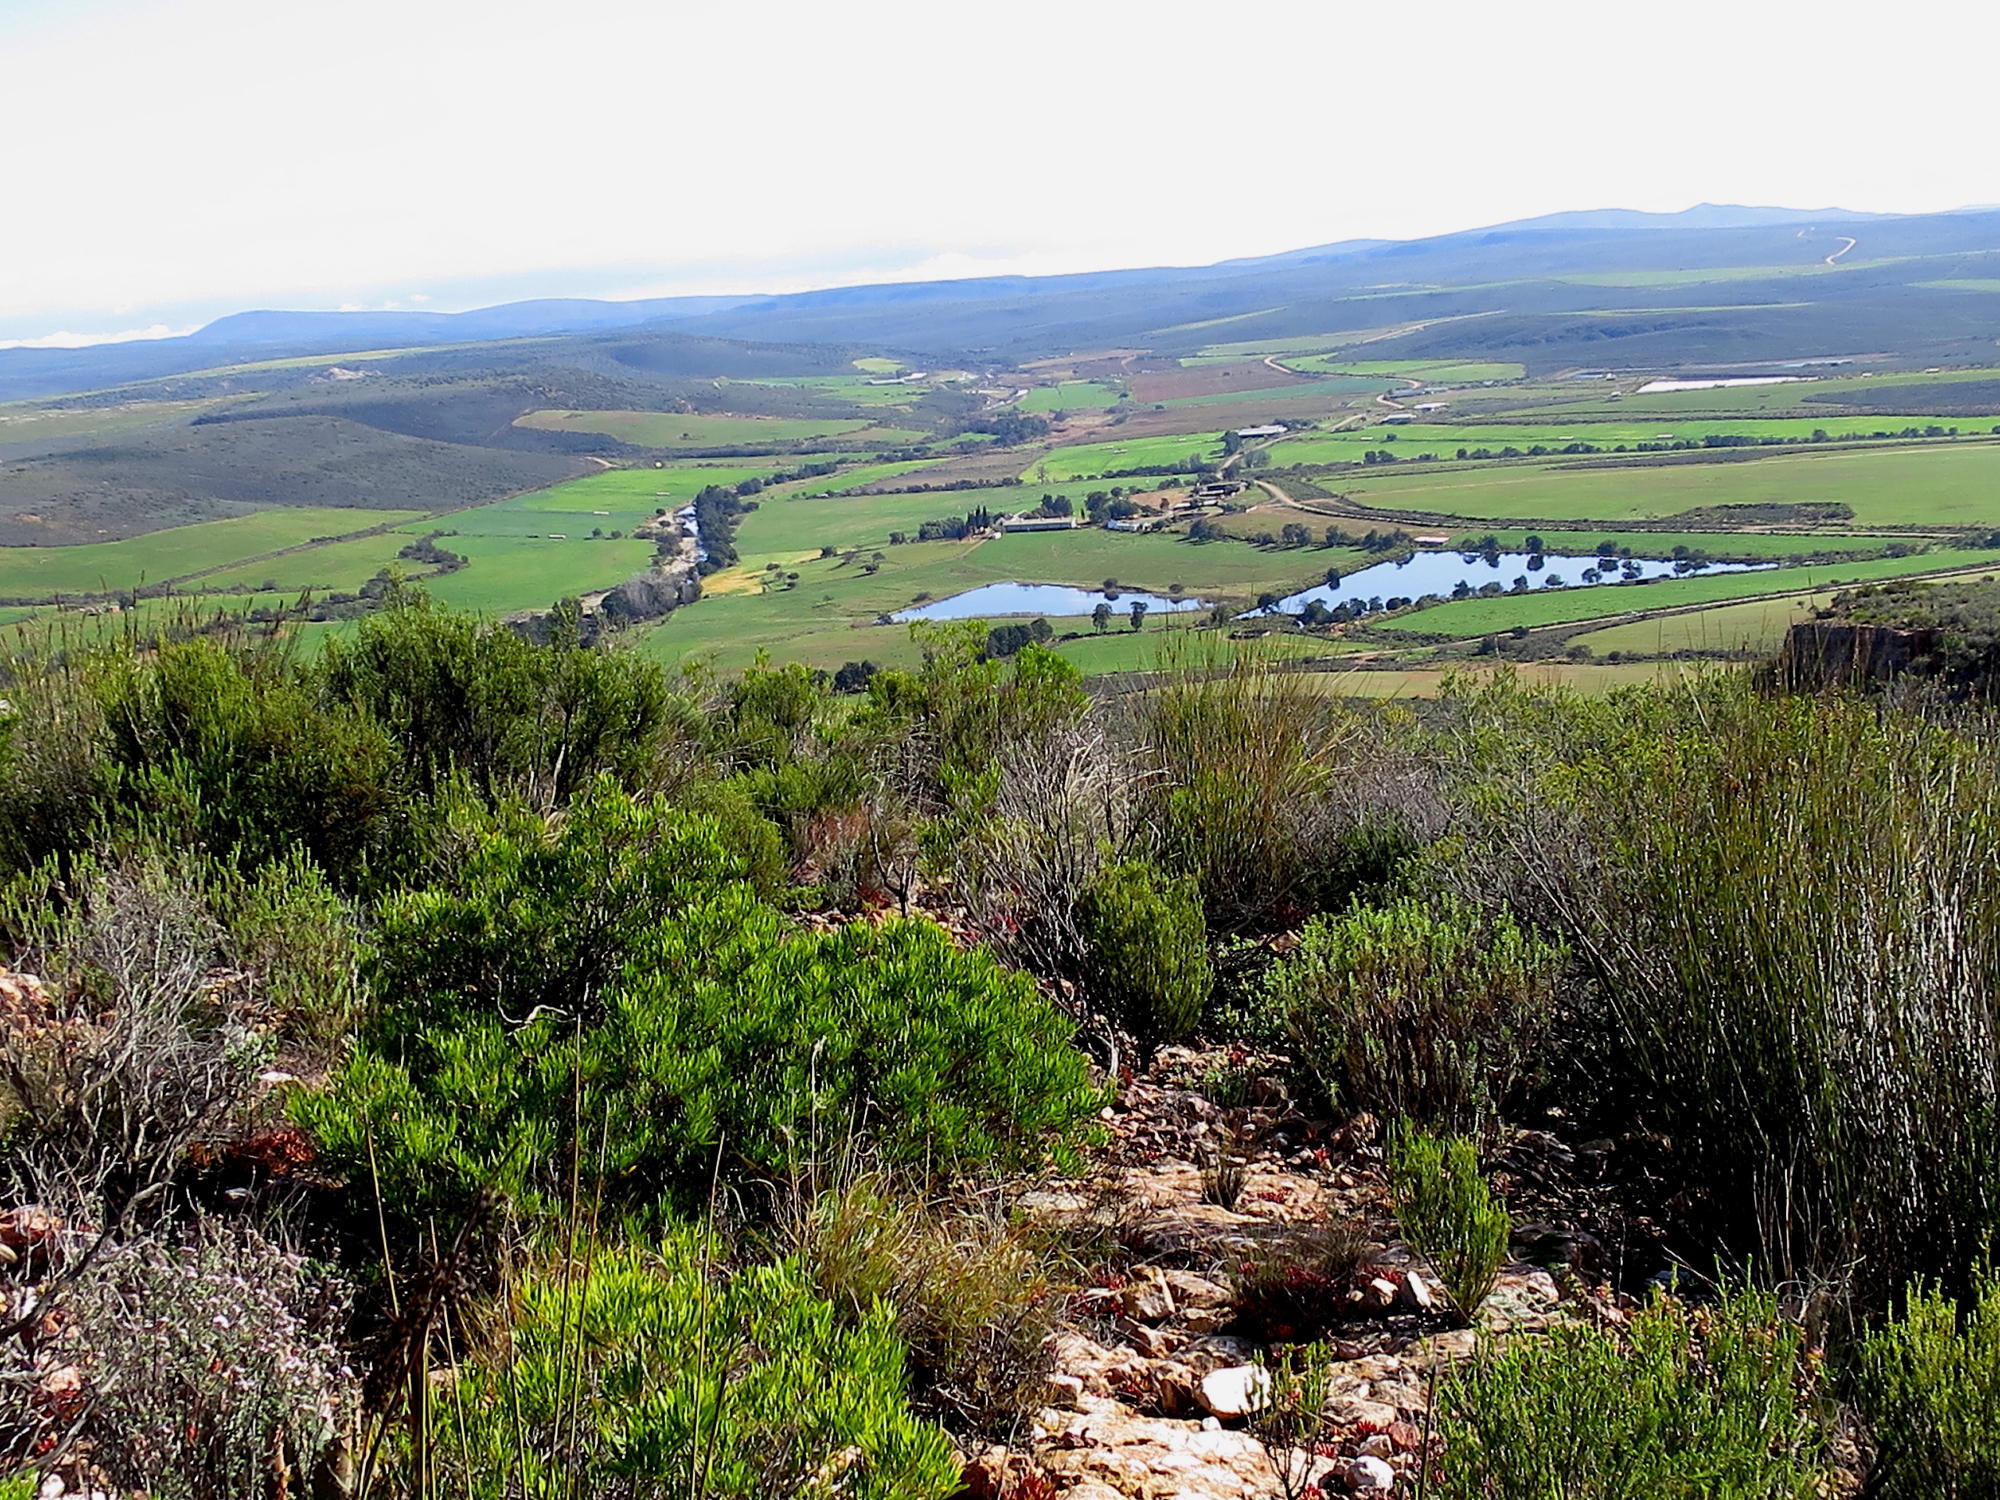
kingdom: Plantae
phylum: Tracheophyta
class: Magnoliopsida
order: Fabales
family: Fabaceae
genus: Acacia
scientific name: Acacia mearnsii
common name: Black wattle
